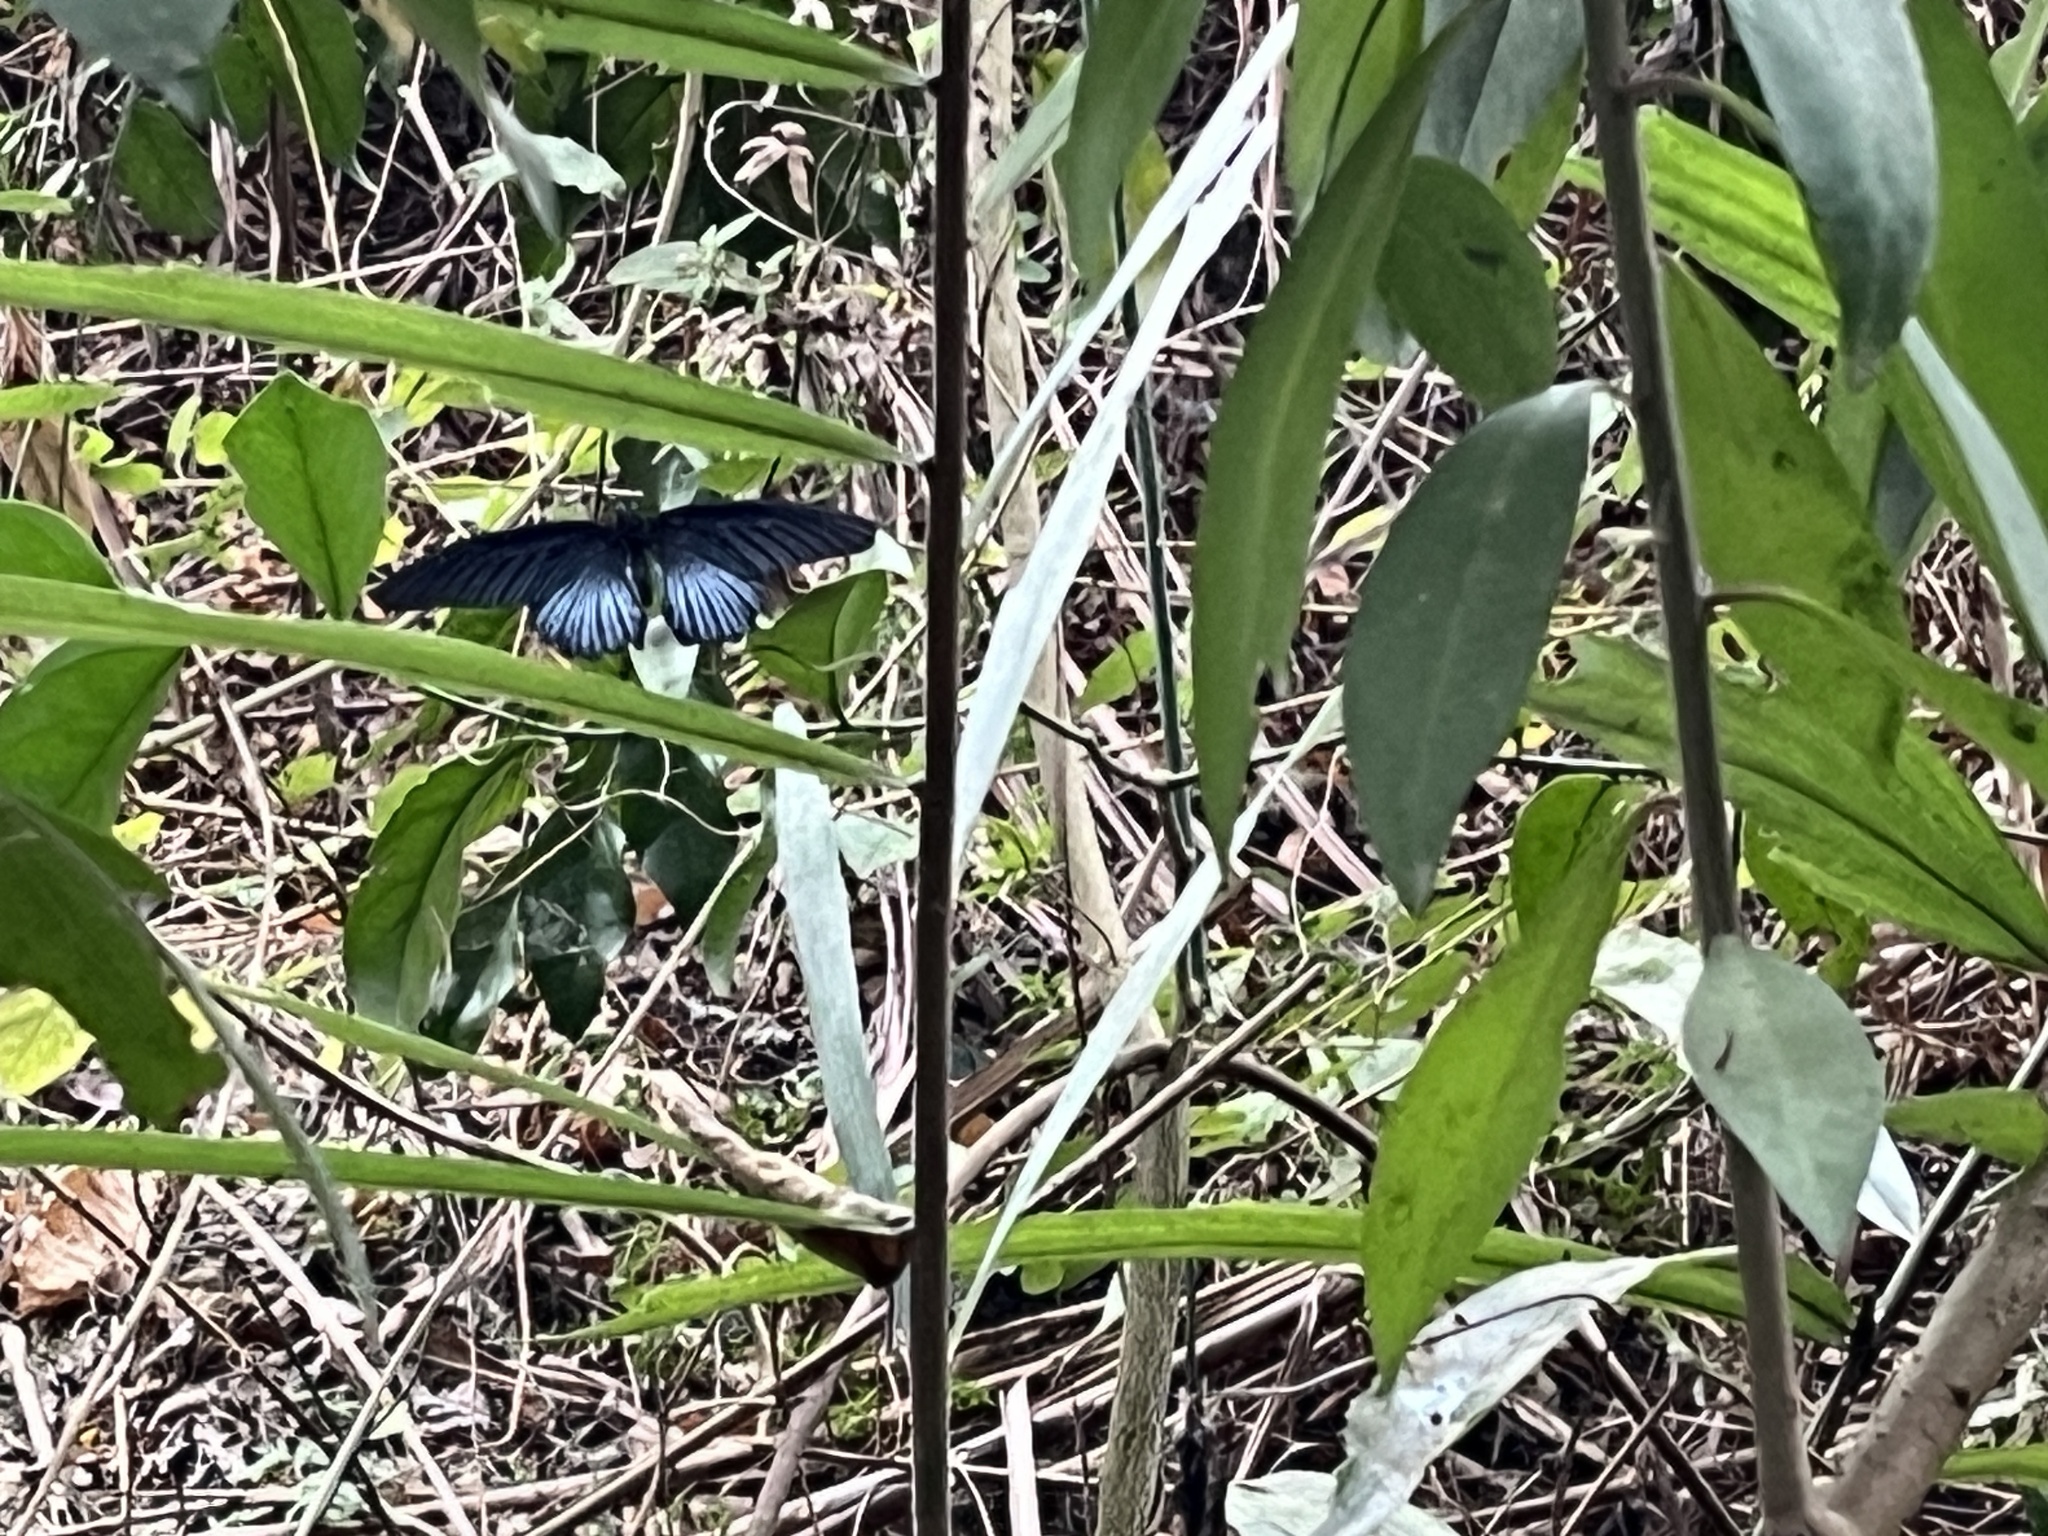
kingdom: Animalia
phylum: Arthropoda
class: Insecta
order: Lepidoptera
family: Papilionidae
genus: Papilio
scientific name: Papilio memnon
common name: Great mormon
